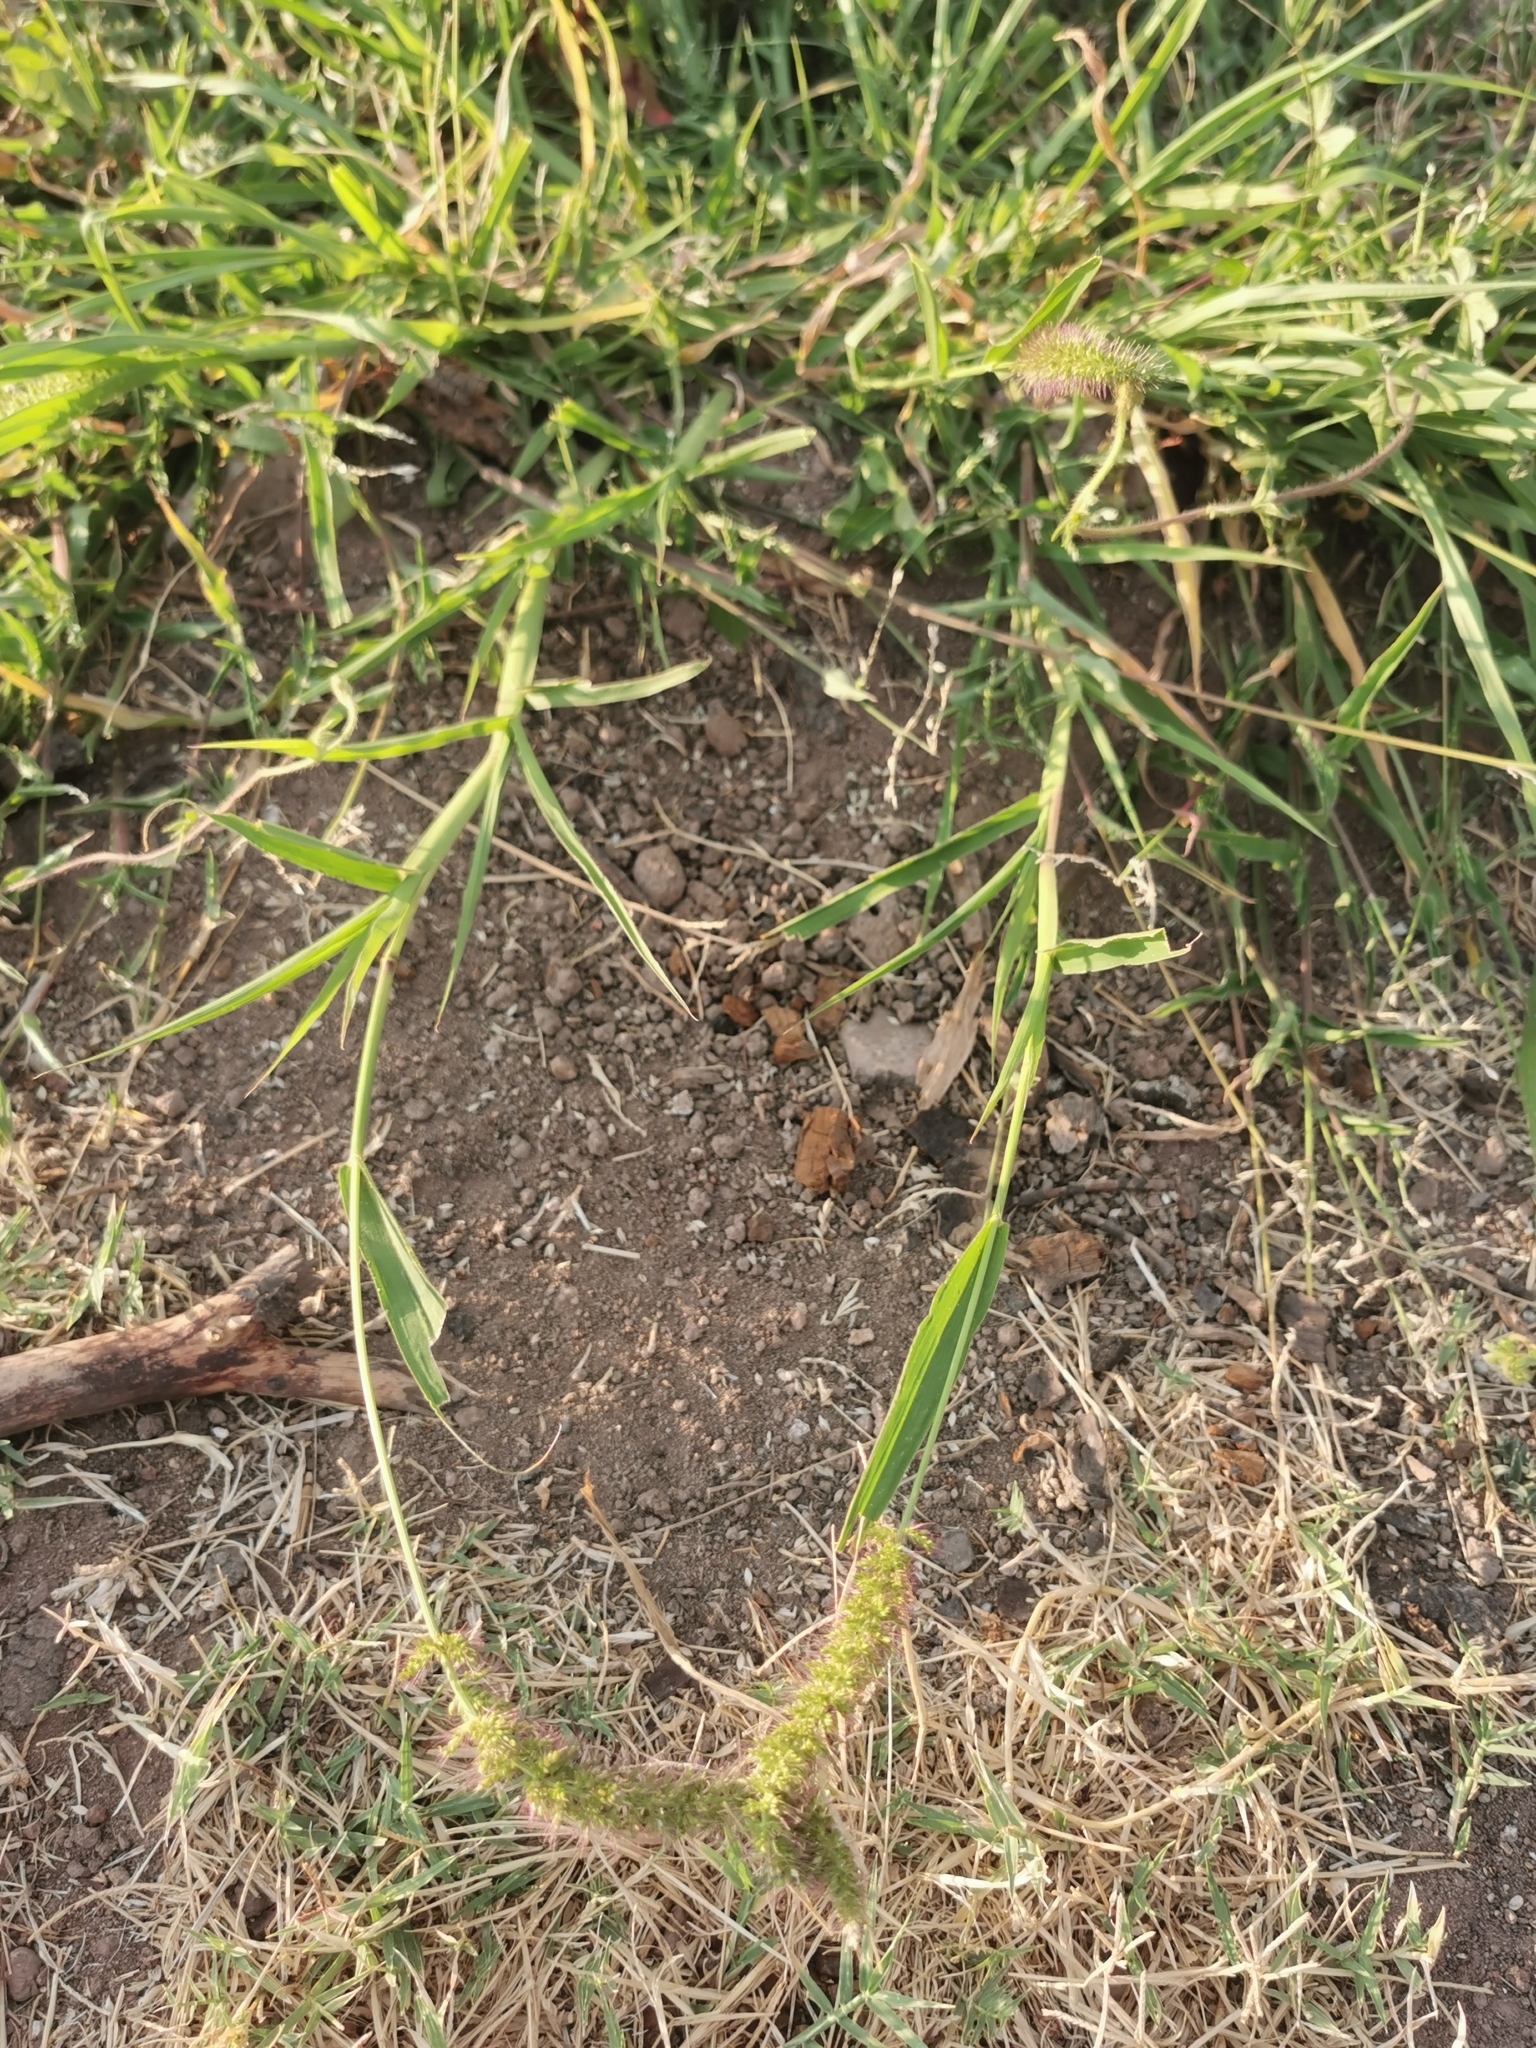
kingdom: Plantae
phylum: Tracheophyta
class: Liliopsida
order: Poales
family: Poaceae
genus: Setaria
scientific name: Setaria adhaerens
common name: Adherent bristle-grass
